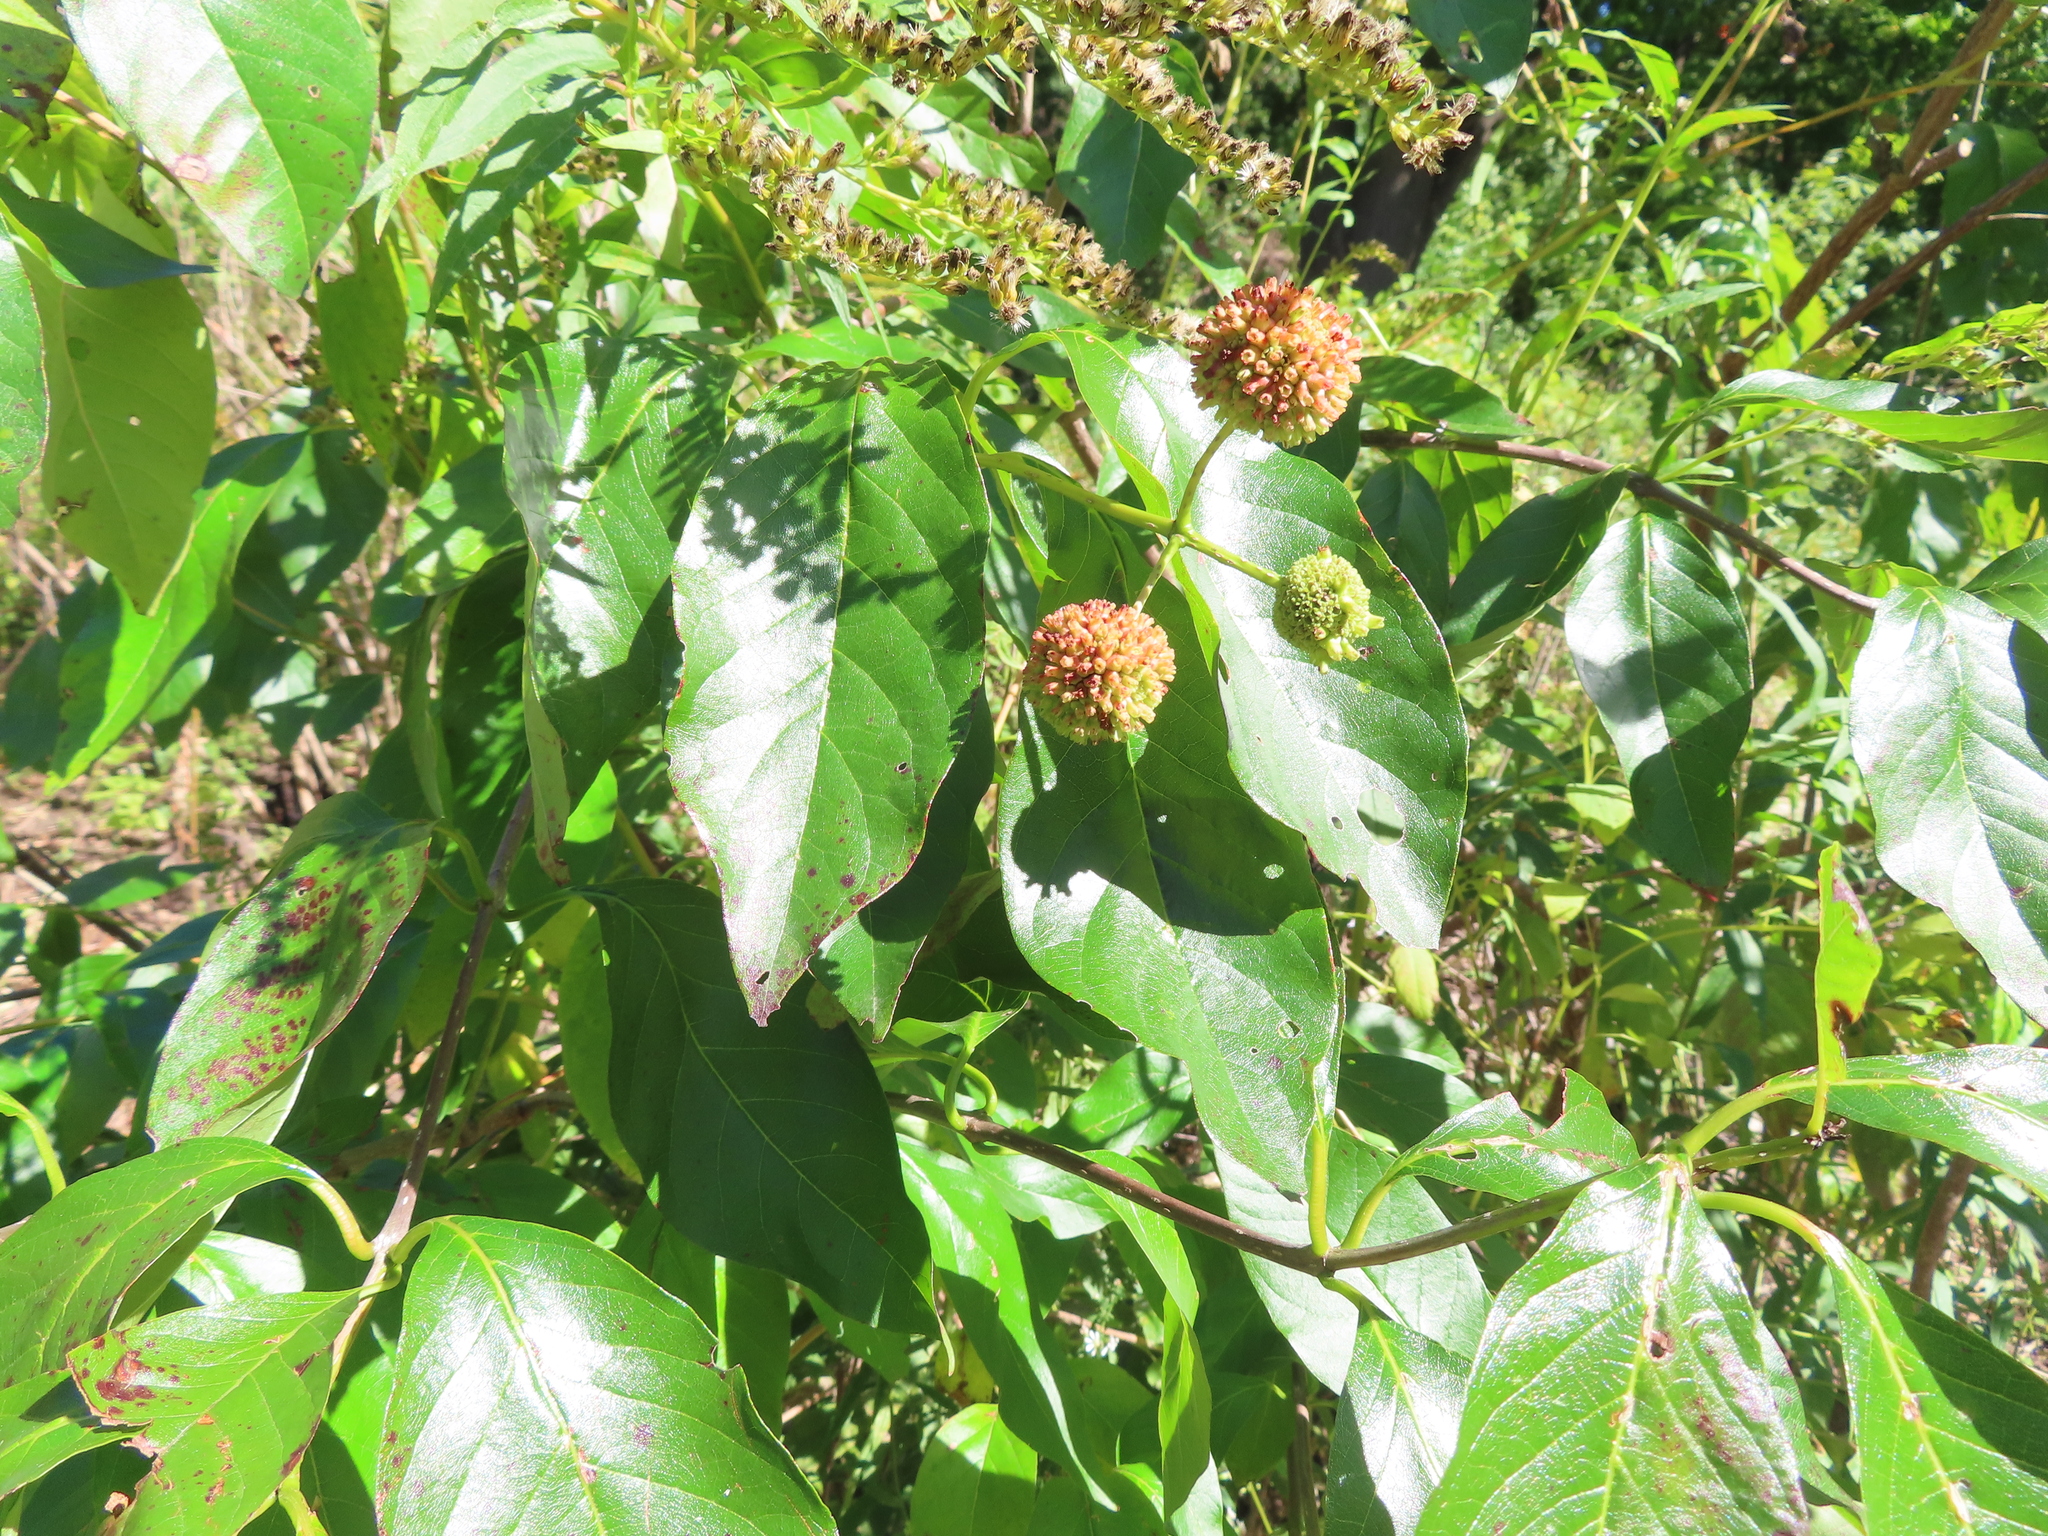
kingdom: Plantae
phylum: Tracheophyta
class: Magnoliopsida
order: Gentianales
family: Rubiaceae
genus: Cephalanthus
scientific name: Cephalanthus occidentalis
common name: Button-willow
